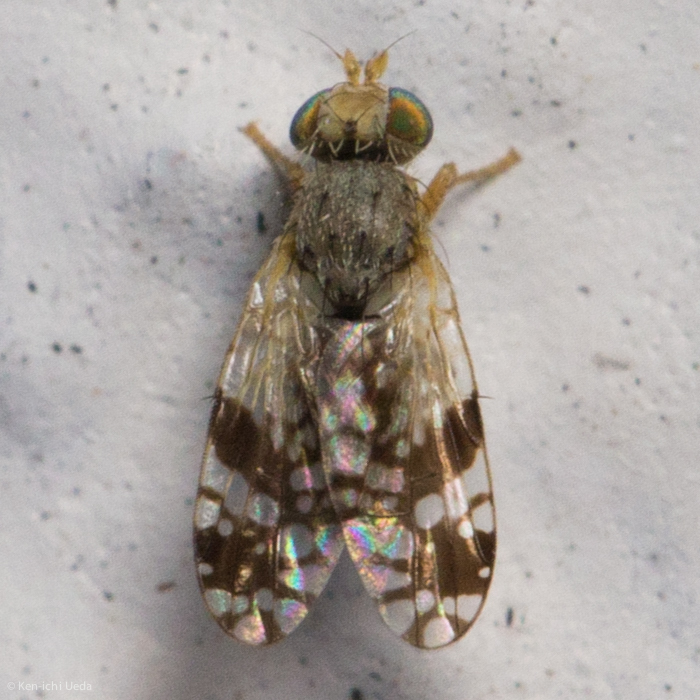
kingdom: Animalia
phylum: Arthropoda
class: Insecta
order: Diptera
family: Tephritidae
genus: Tephritis
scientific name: Tephritis araneosa
